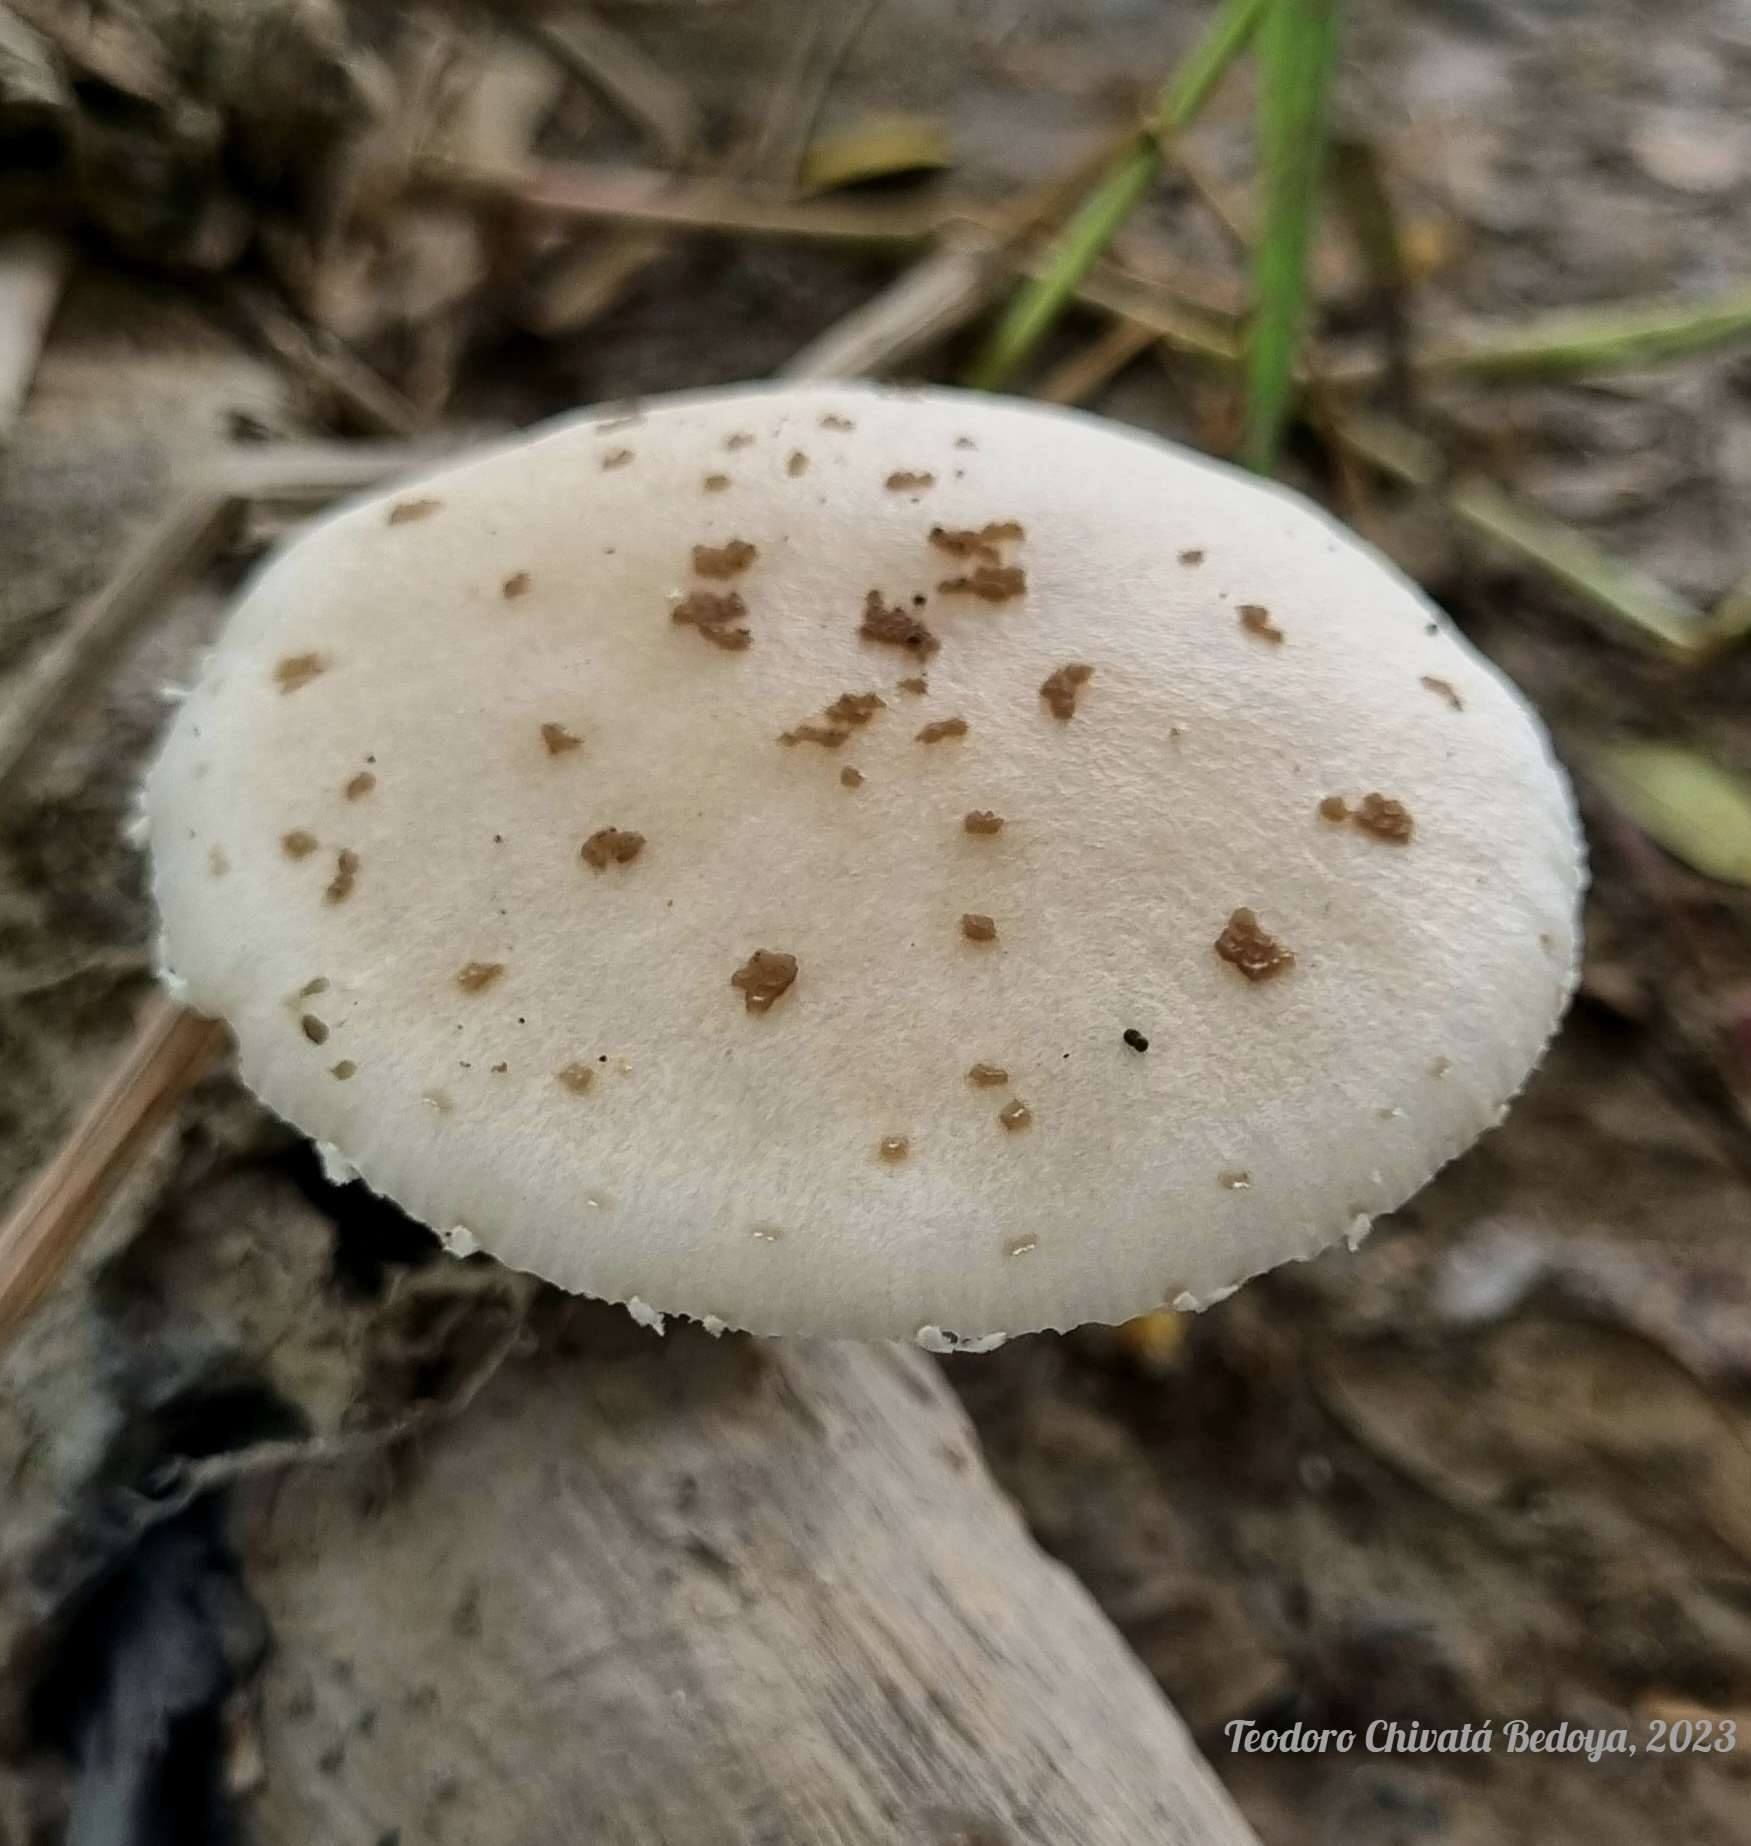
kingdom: Fungi
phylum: Basidiomycota
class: Agaricomycetes
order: Agaricales
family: Physalacriaceae
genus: Oudemansiella
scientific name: Oudemansiella cubensis
